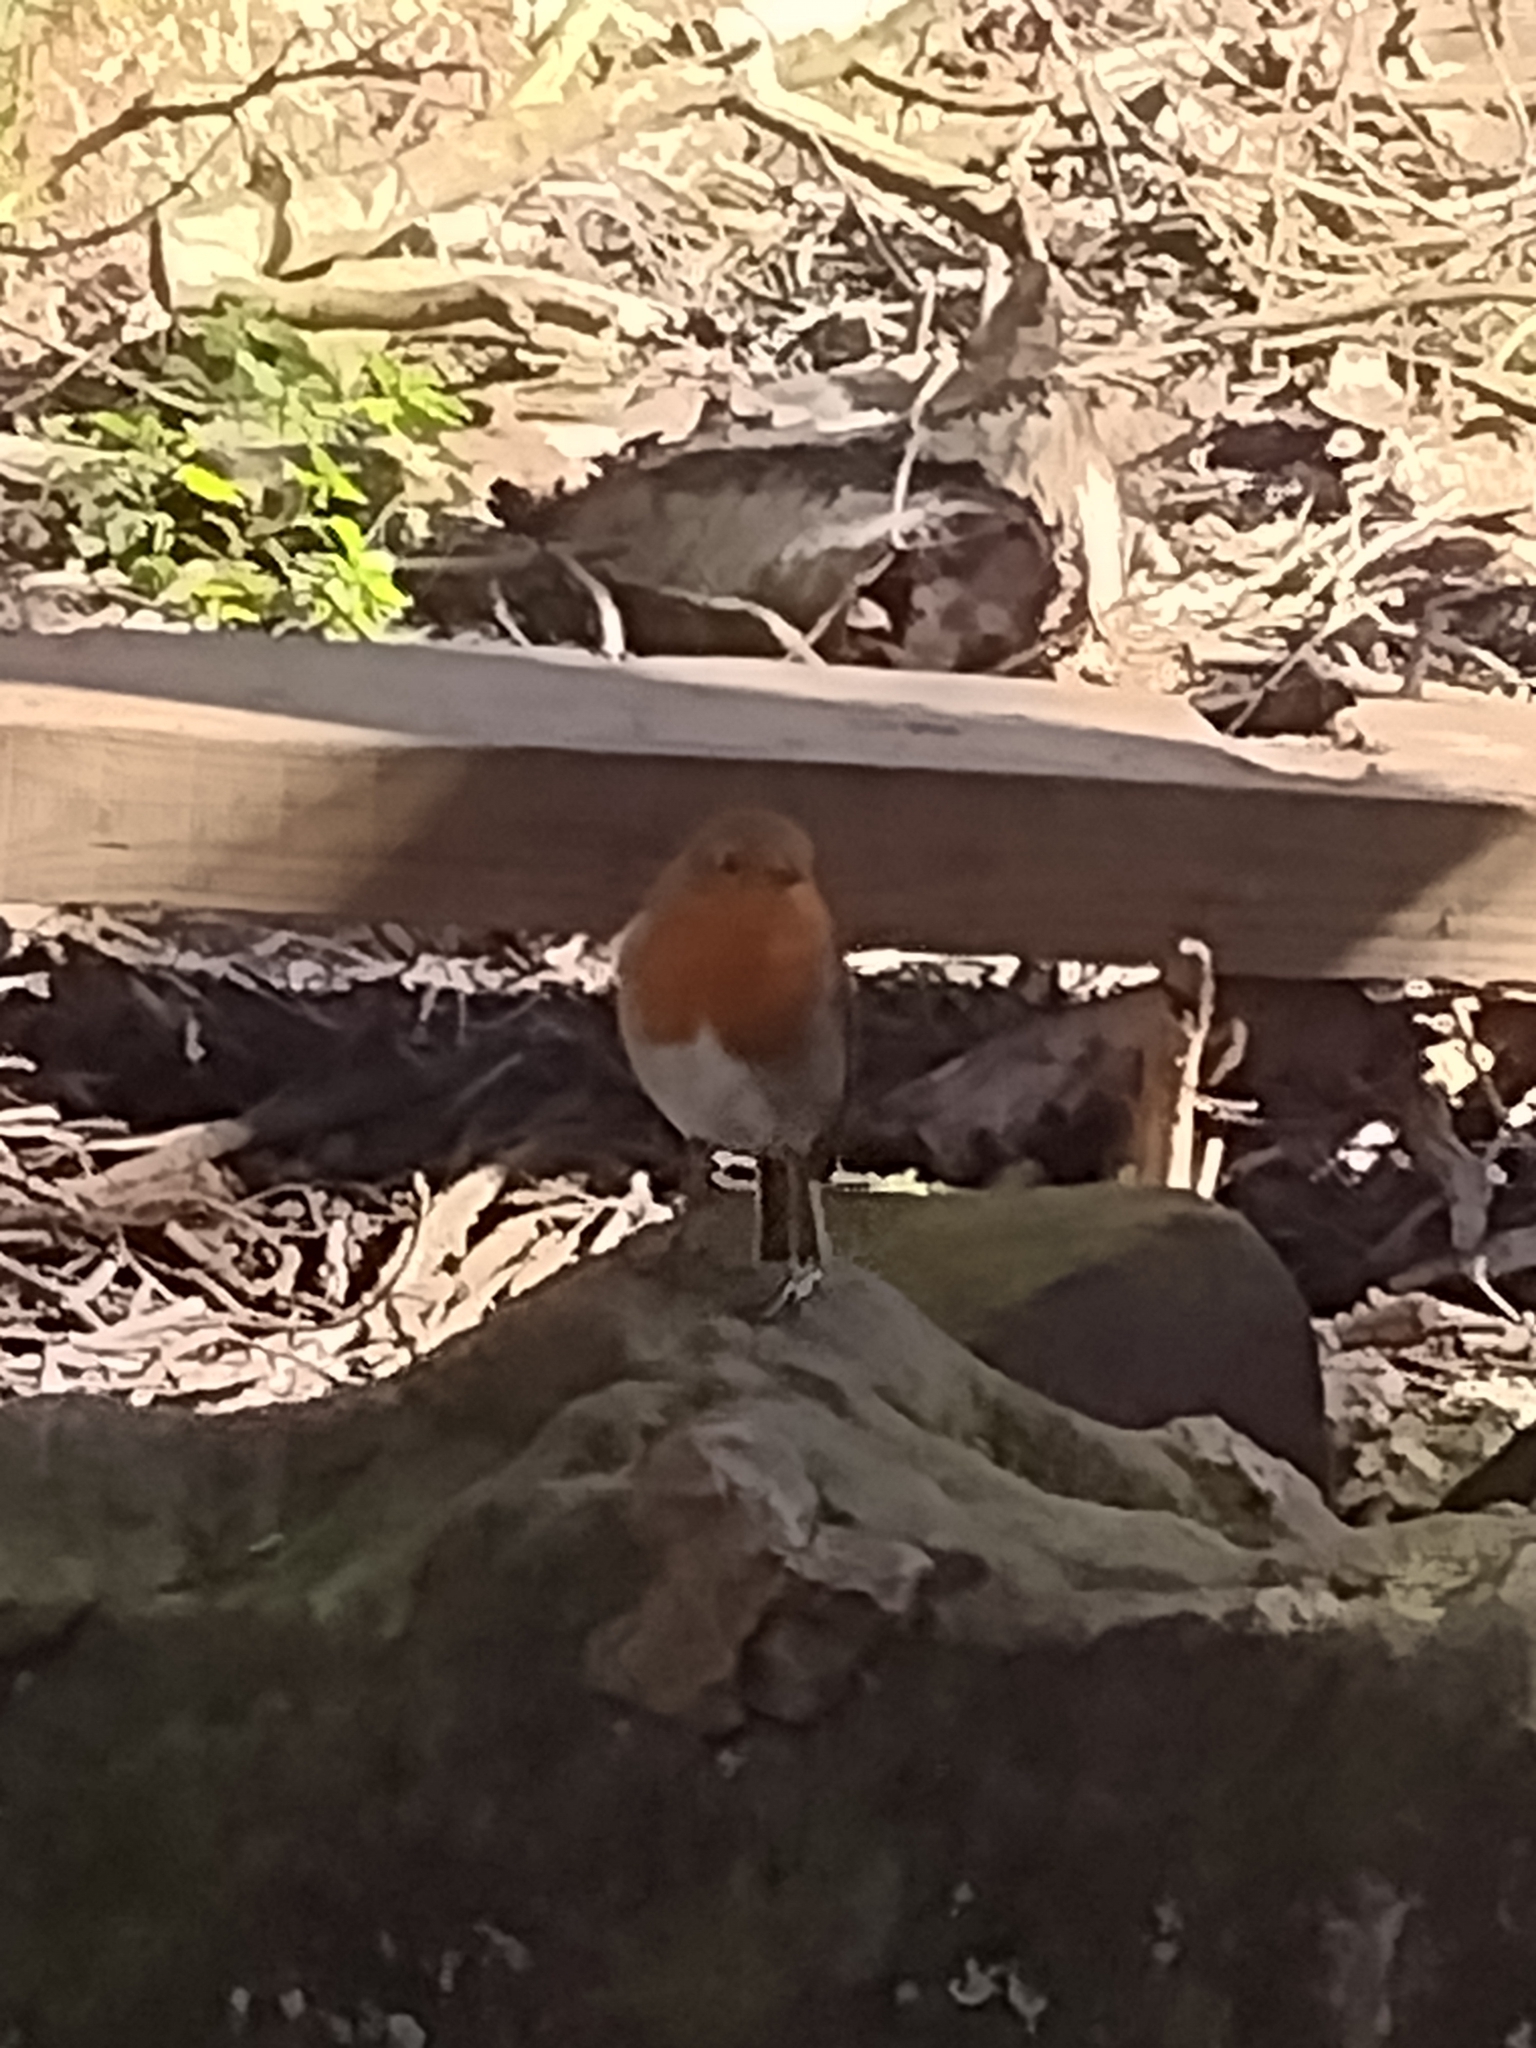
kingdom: Animalia
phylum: Chordata
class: Aves
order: Passeriformes
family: Muscicapidae
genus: Erithacus
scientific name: Erithacus rubecula
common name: European robin
